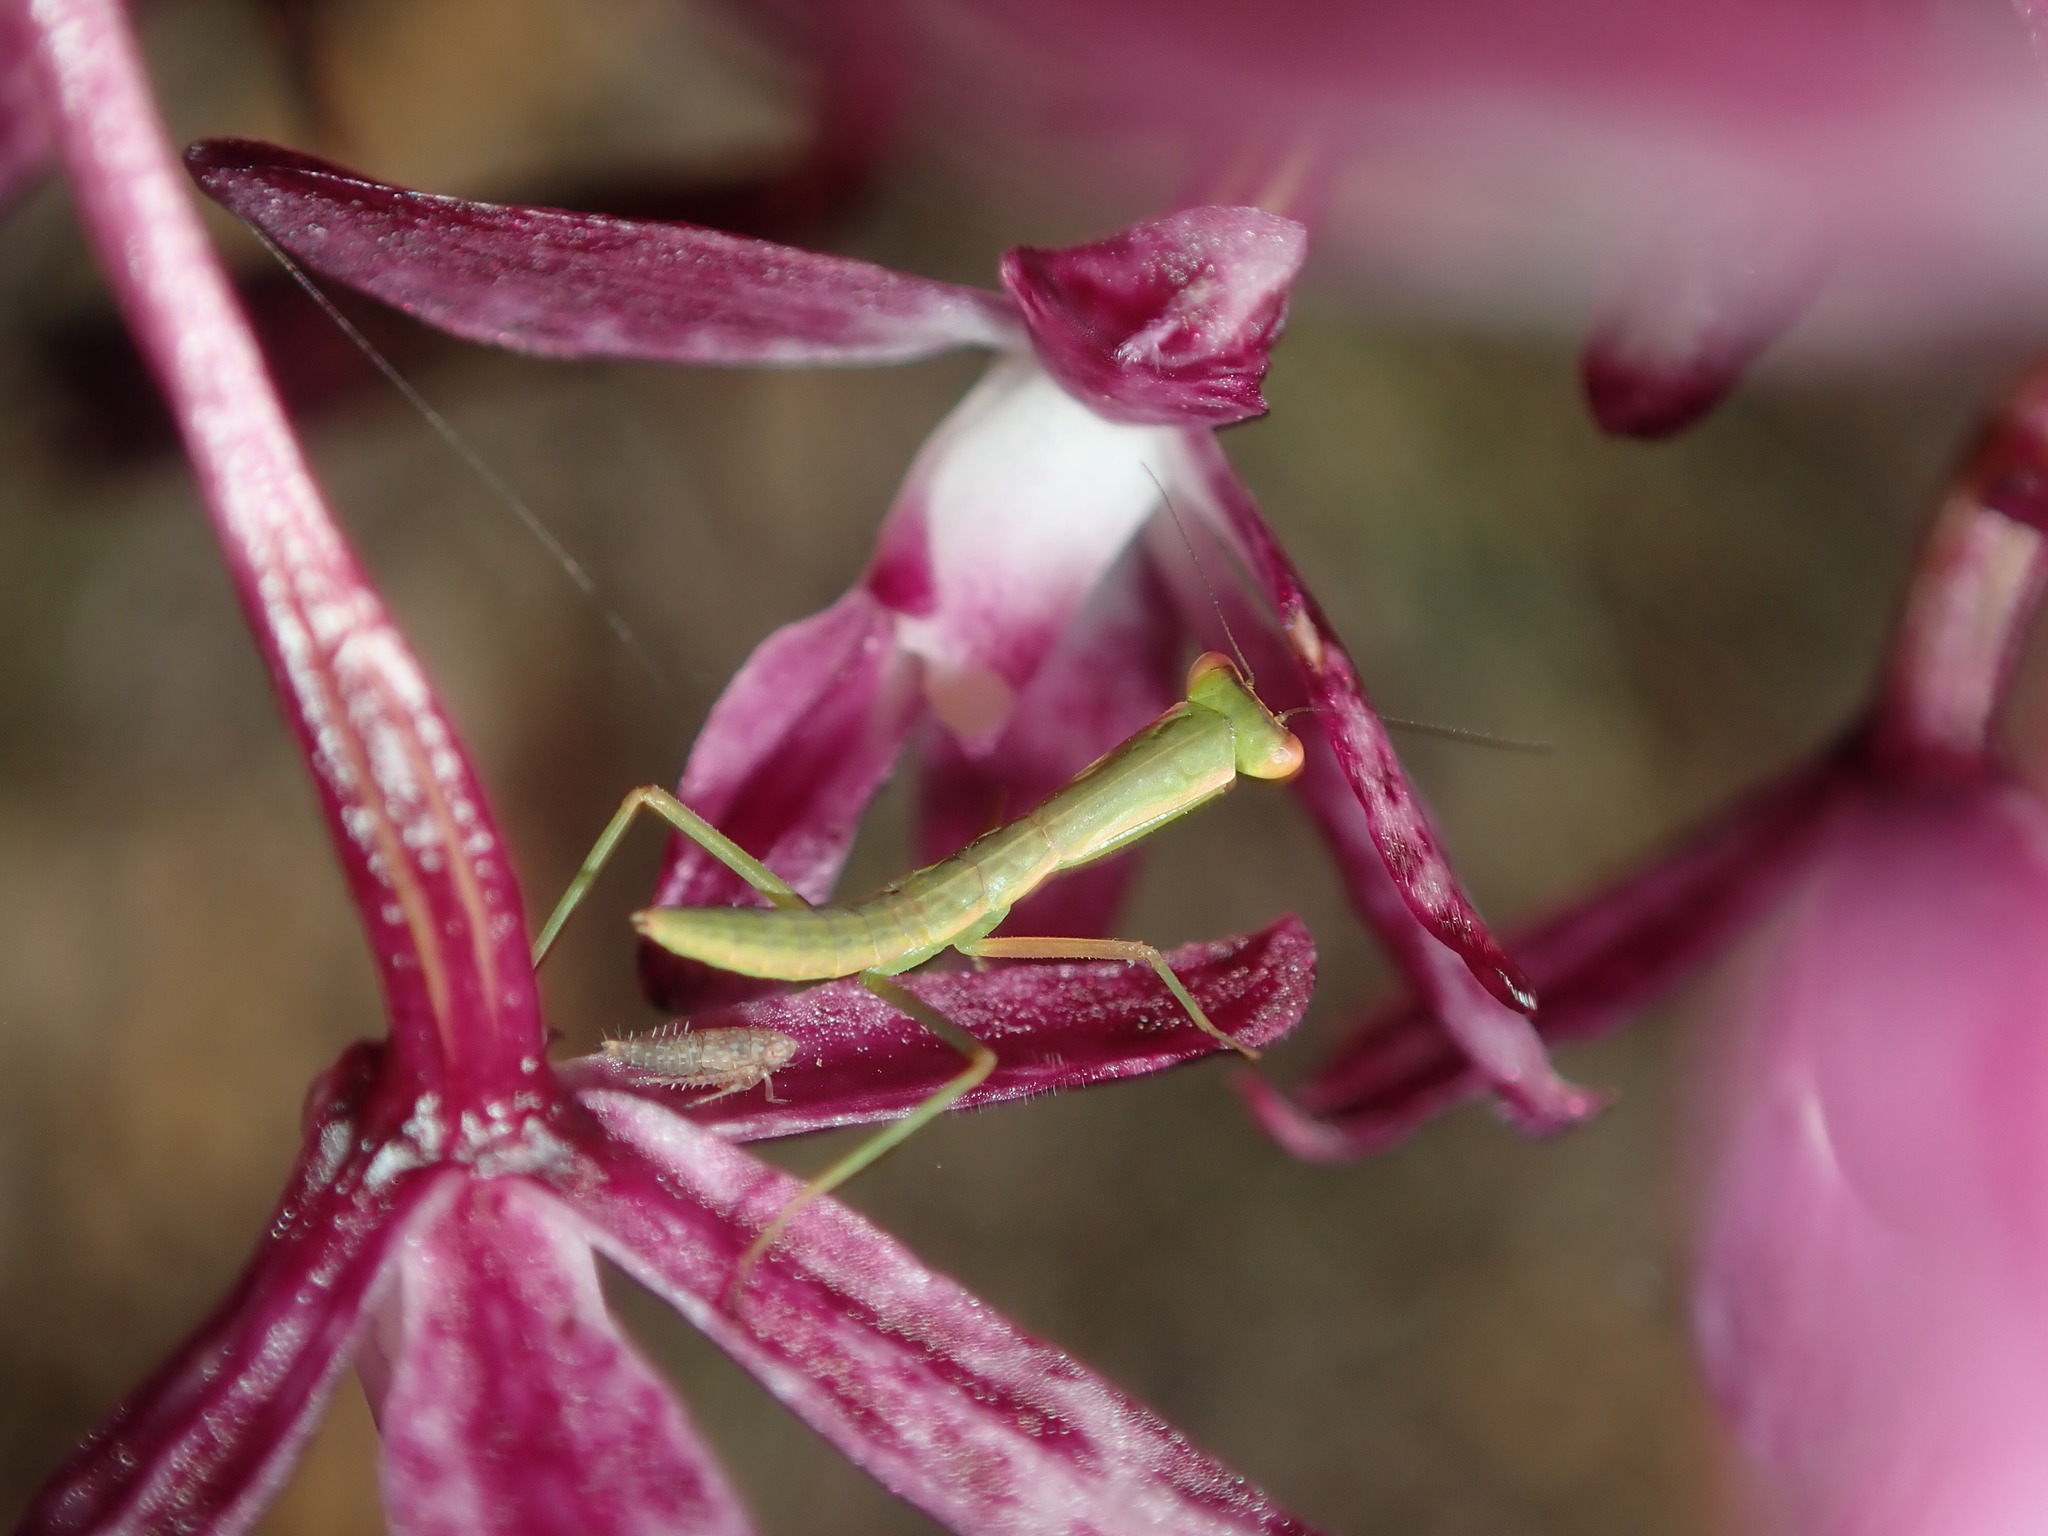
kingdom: Animalia
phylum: Arthropoda
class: Insecta
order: Mantodea
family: Mantidae
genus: Orthodera
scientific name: Orthodera ministralis
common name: Mantis
